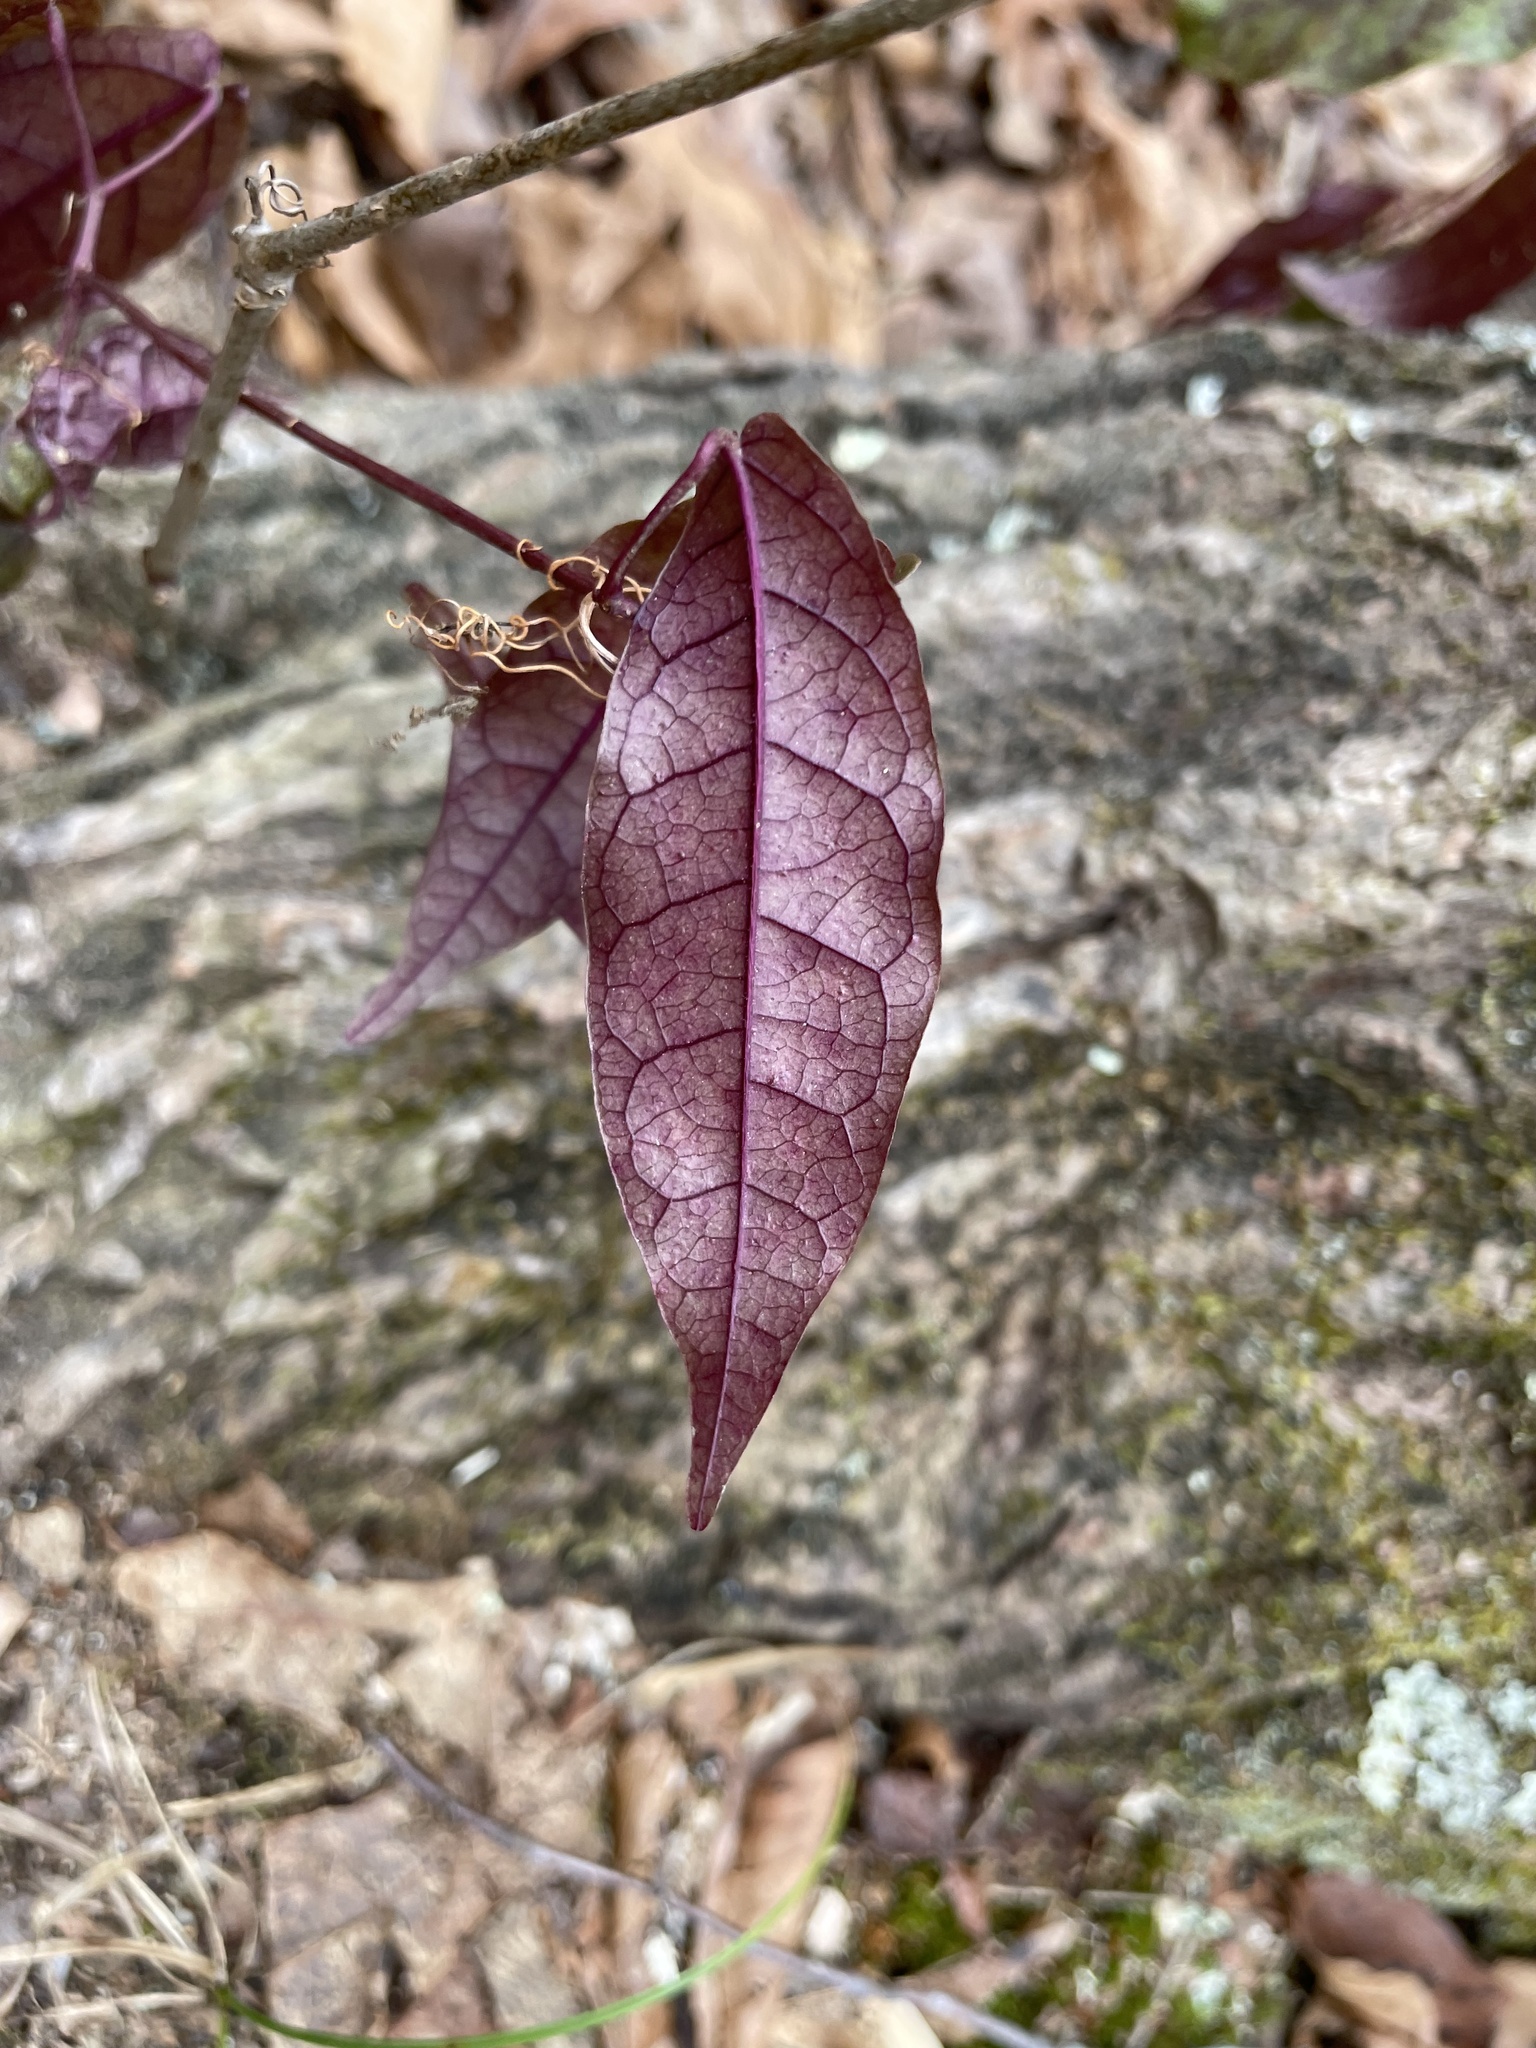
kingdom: Plantae
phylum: Tracheophyta
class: Magnoliopsida
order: Lamiales
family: Bignoniaceae
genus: Bignonia
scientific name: Bignonia capreolata
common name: Crossvine
